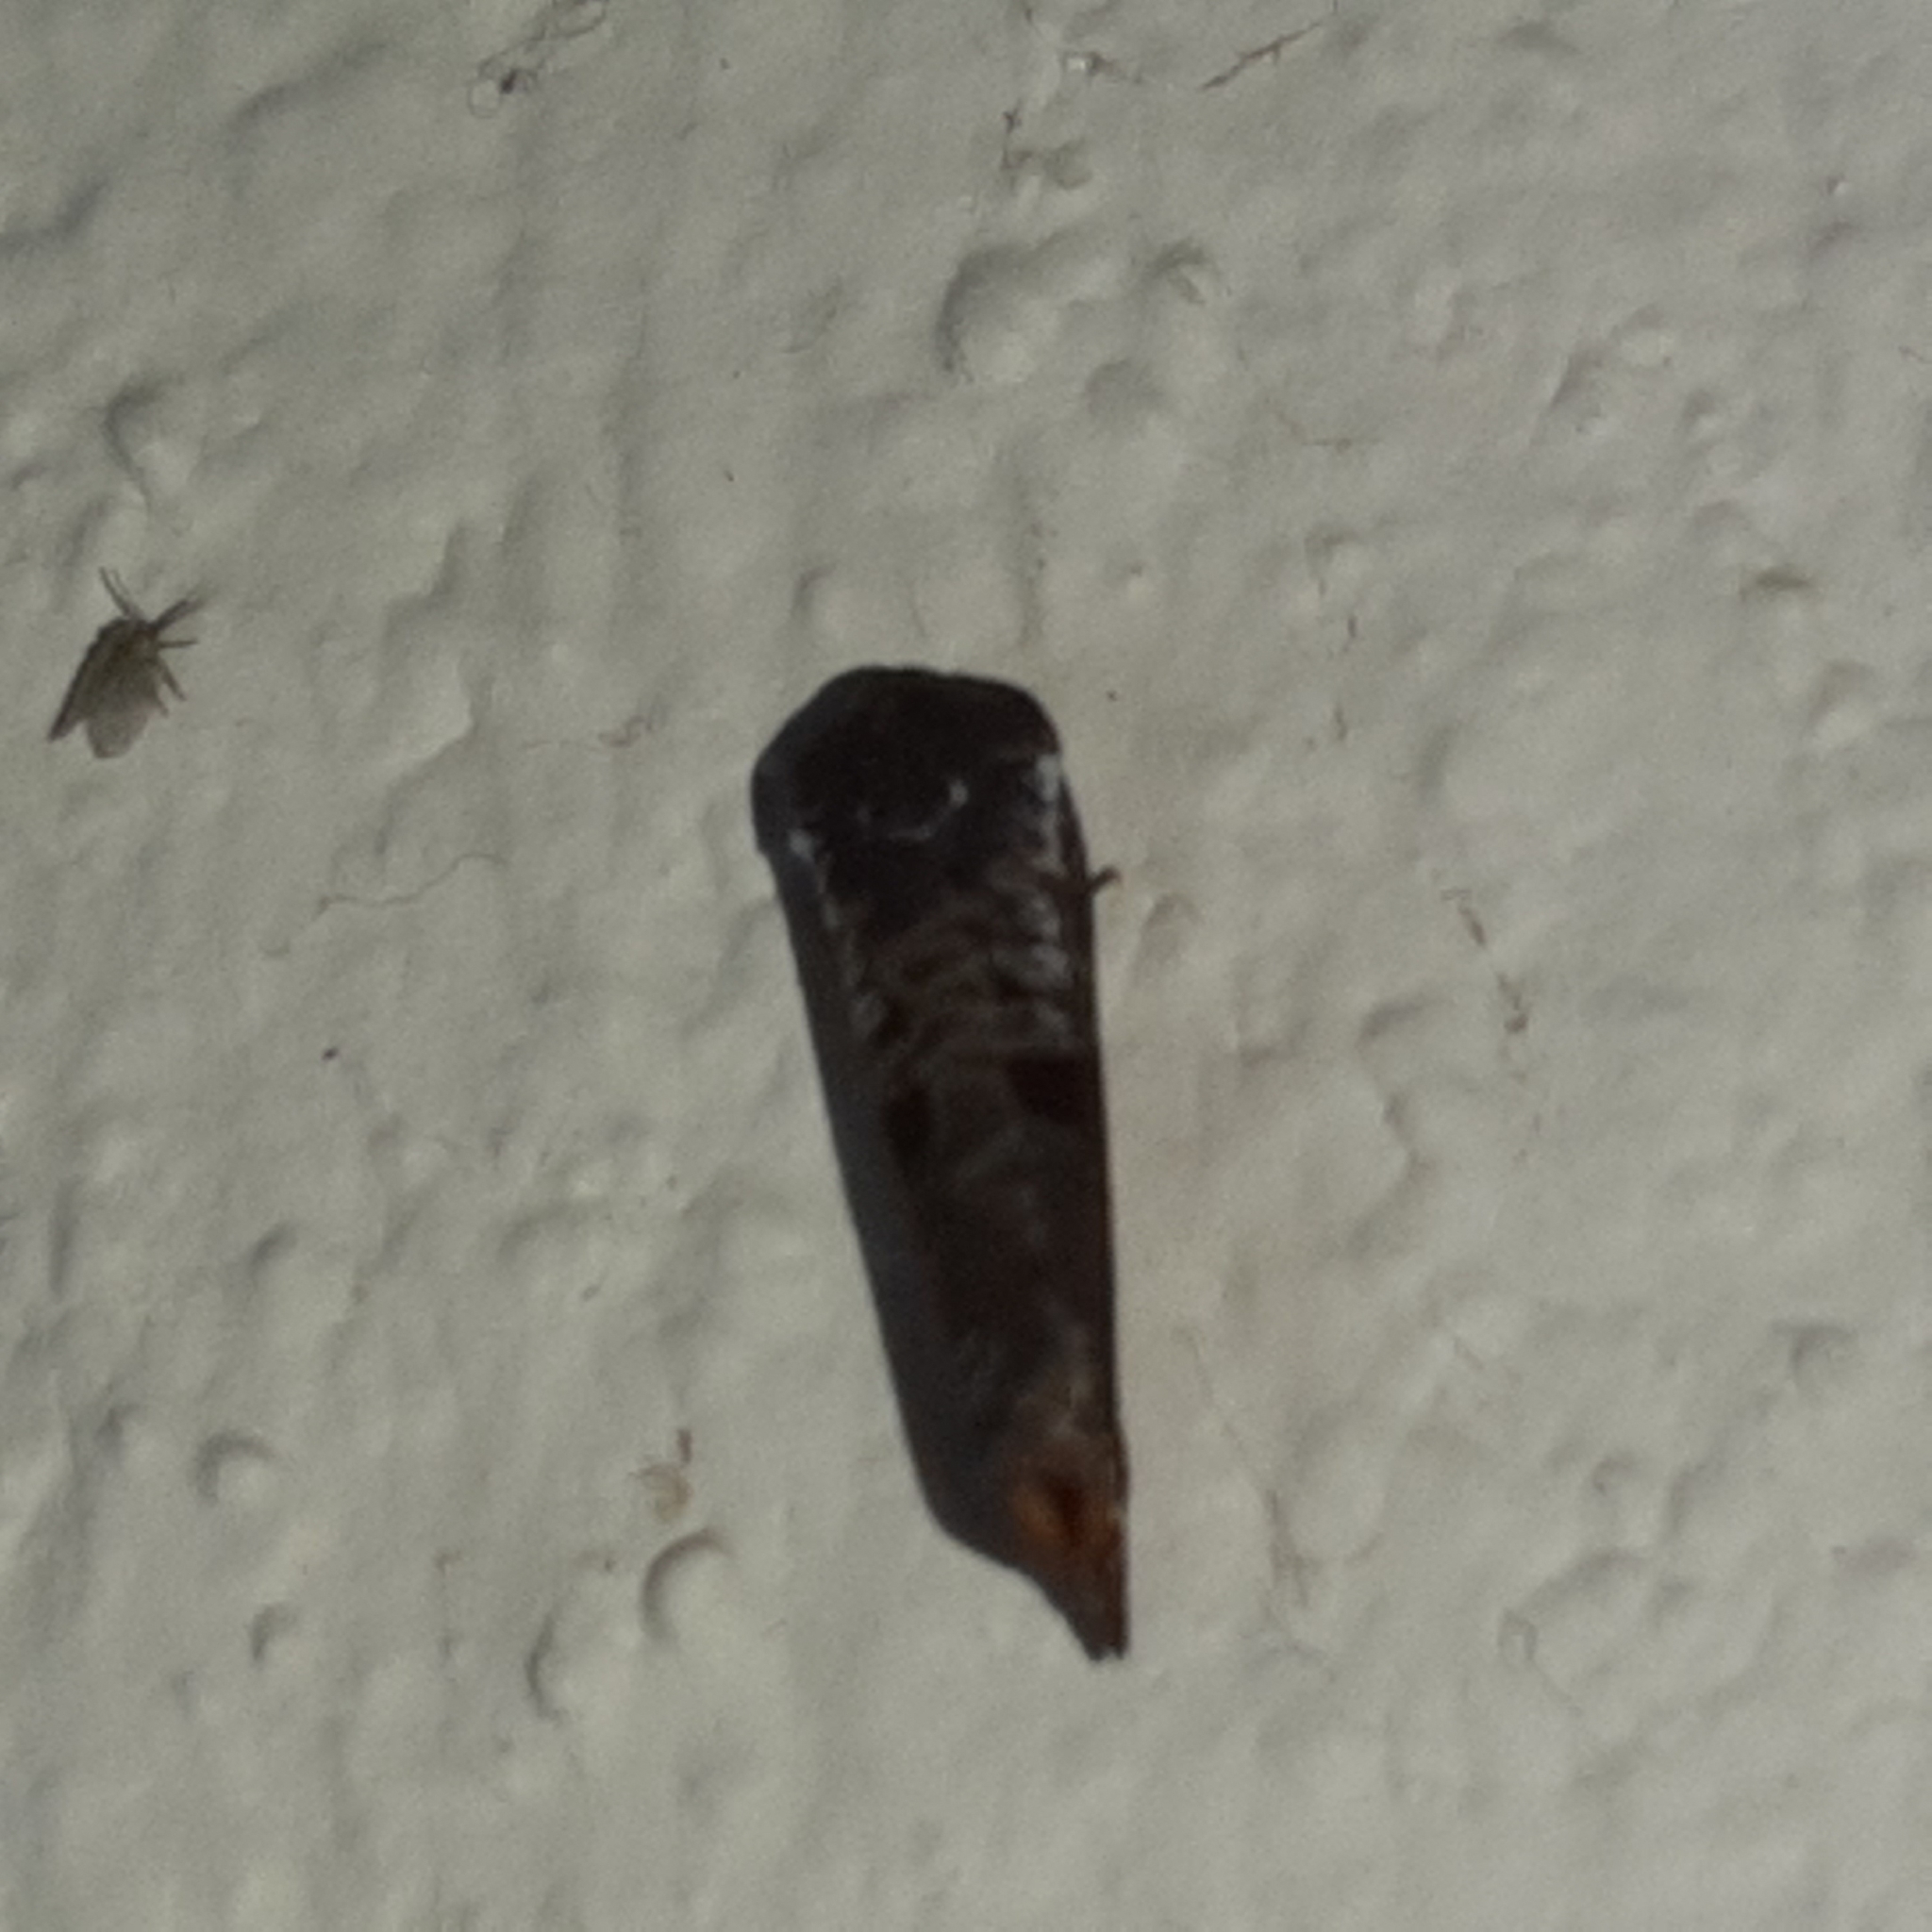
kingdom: Animalia
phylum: Arthropoda
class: Insecta
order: Lepidoptera
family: Tortricidae
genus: Anacrusis
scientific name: Anacrusis turrialbae
